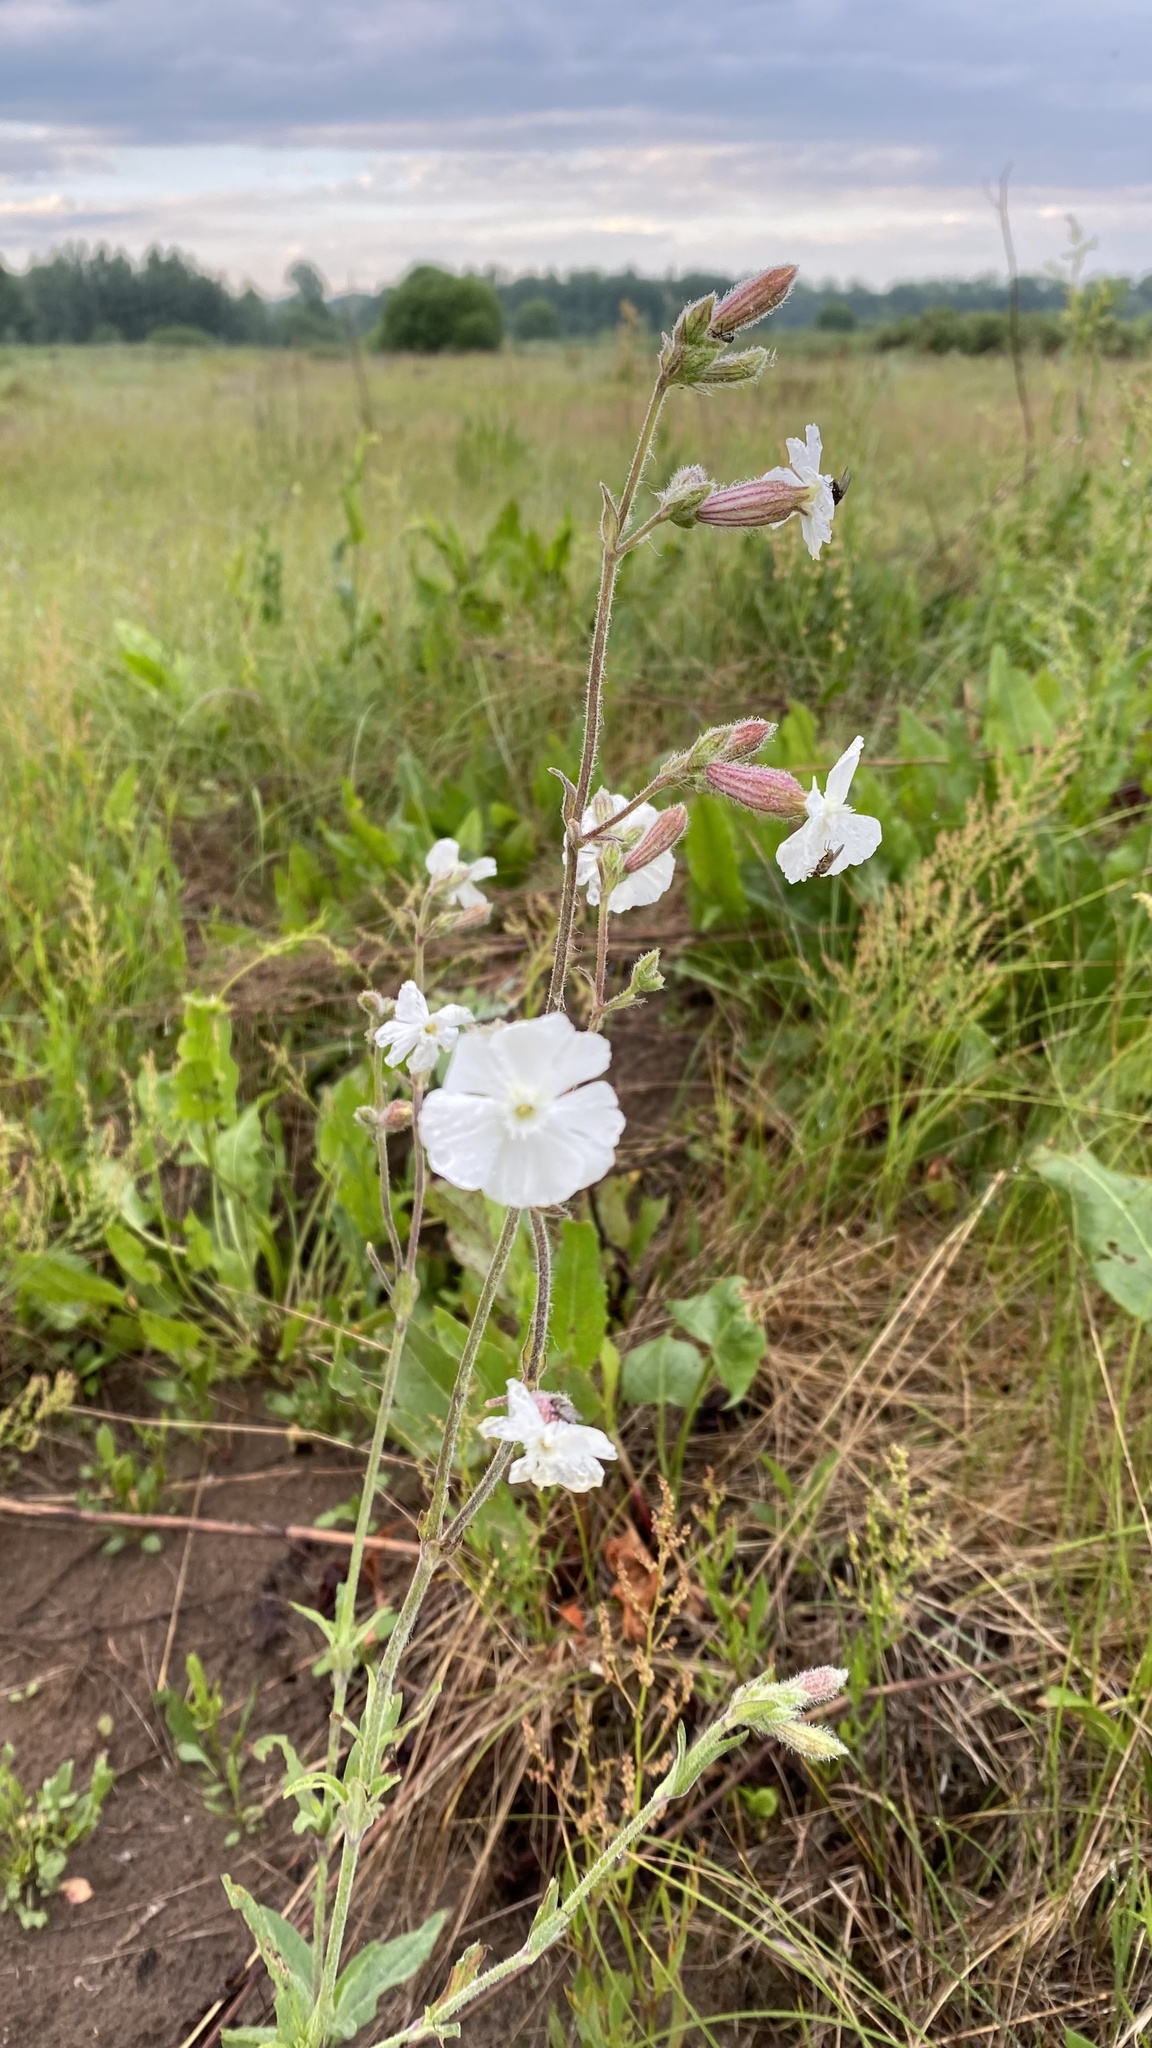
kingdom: Plantae
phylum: Tracheophyta
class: Magnoliopsida
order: Caryophyllales
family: Caryophyllaceae
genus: Silene
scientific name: Silene latifolia
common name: White campion
